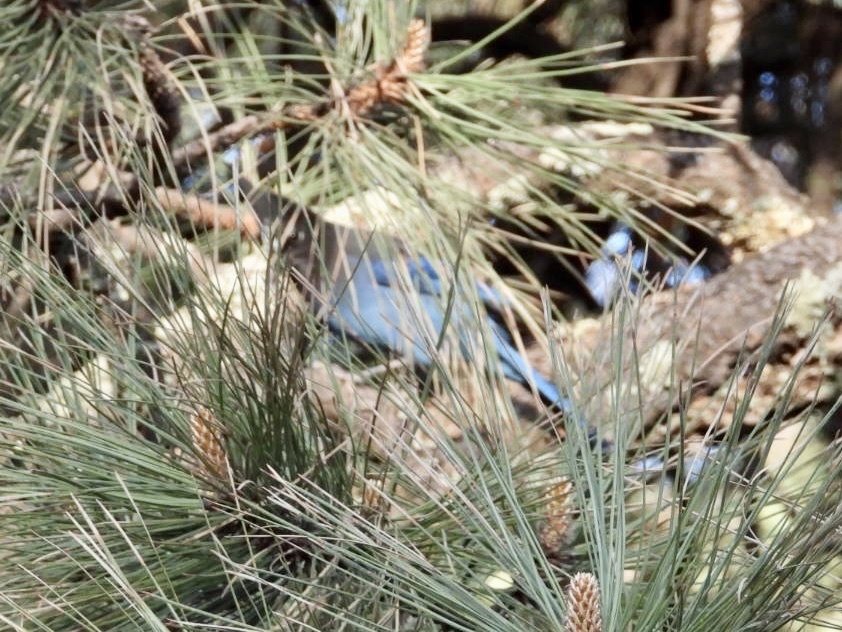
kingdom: Animalia
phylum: Chordata
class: Aves
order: Passeriformes
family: Corvidae
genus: Cyanocitta
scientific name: Cyanocitta stelleri
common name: Steller's jay
